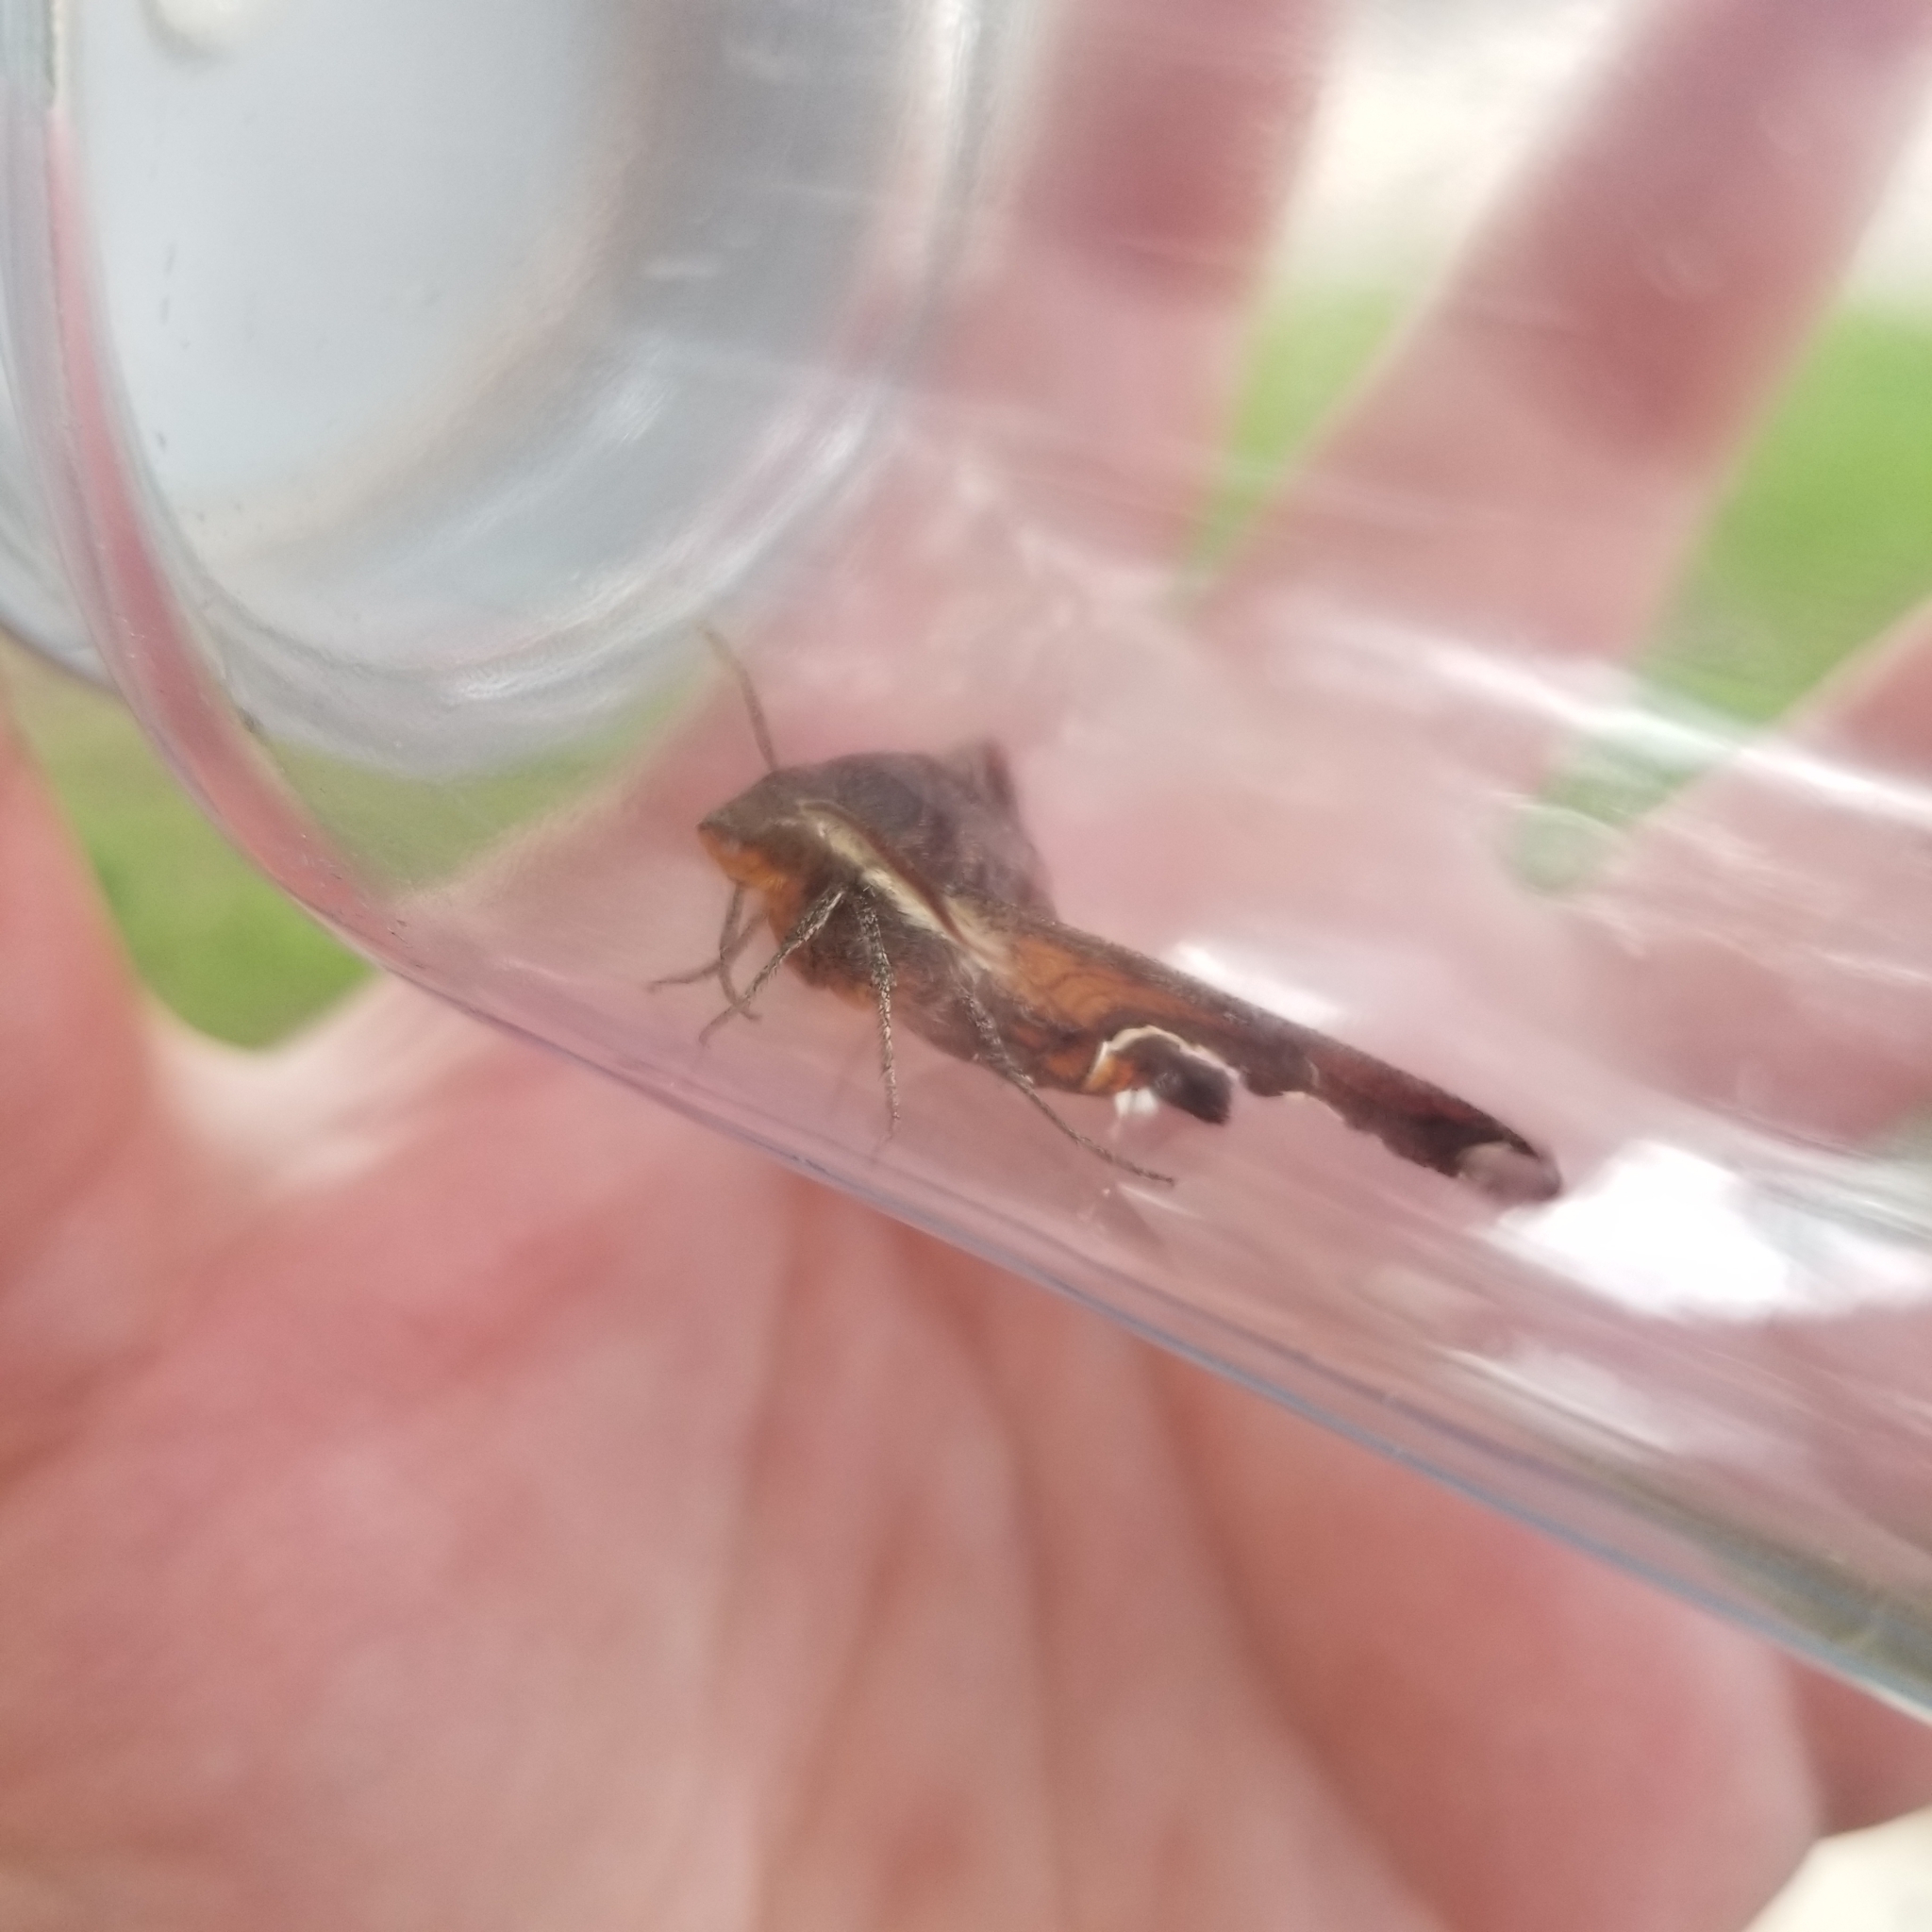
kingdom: Animalia
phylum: Arthropoda
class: Insecta
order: Lepidoptera
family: Sphingidae
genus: Amphion
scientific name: Amphion floridensis
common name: Nessus sphinx
